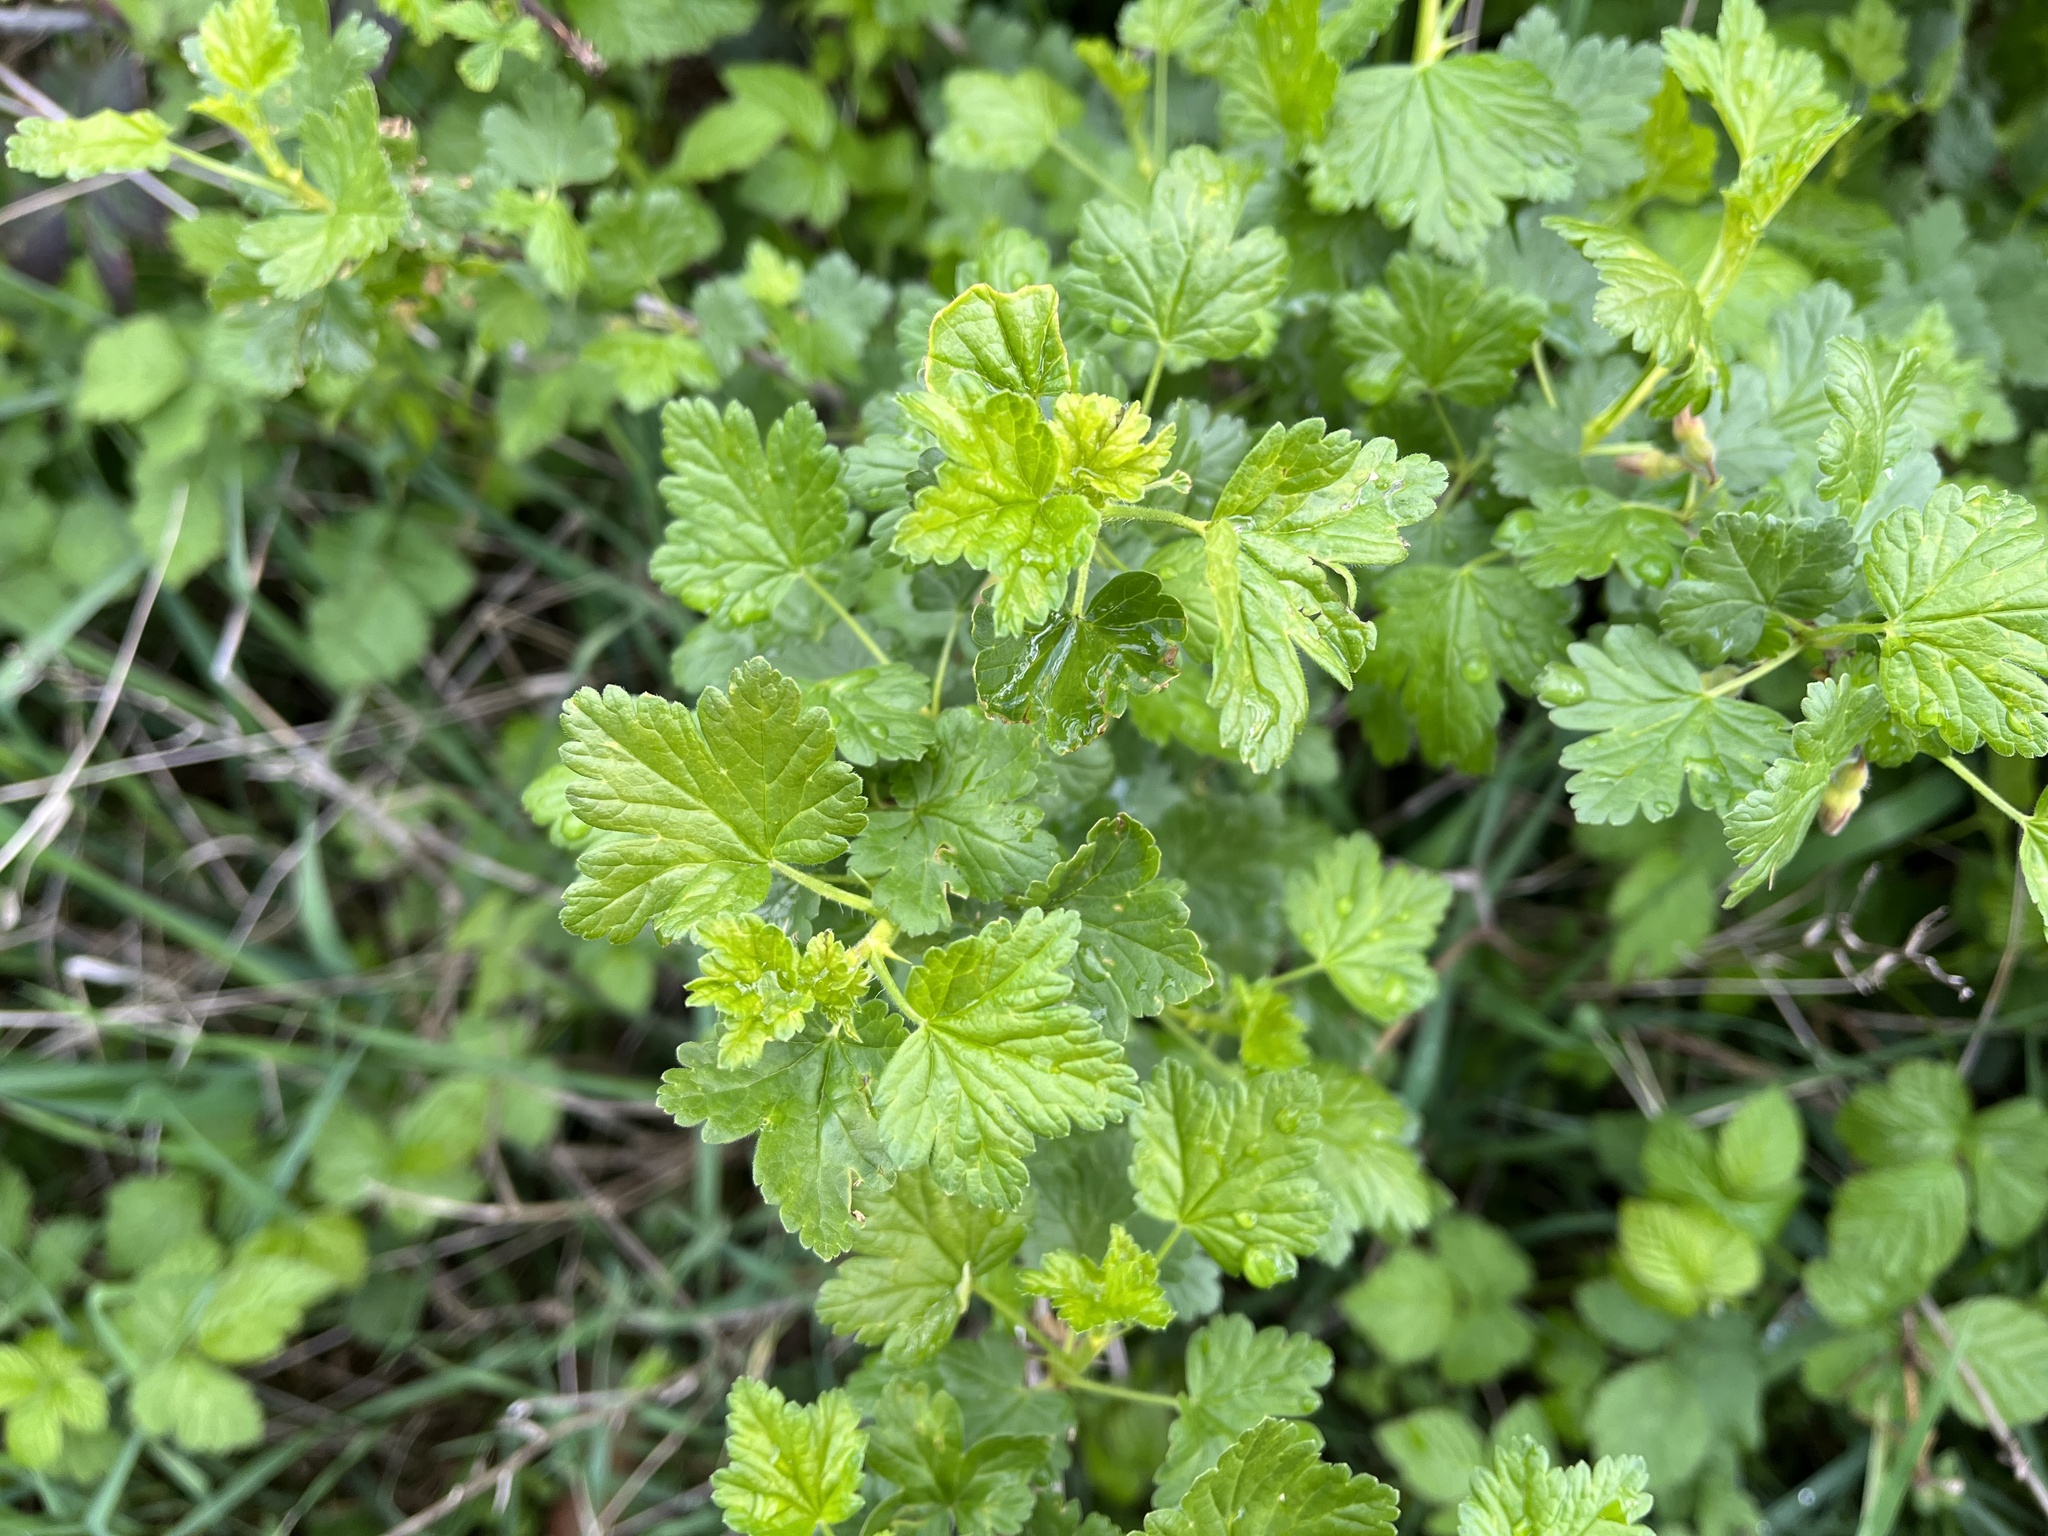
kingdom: Plantae
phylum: Tracheophyta
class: Magnoliopsida
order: Saxifragales
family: Grossulariaceae
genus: Ribes
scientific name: Ribes uva-crispa
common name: Gooseberry
